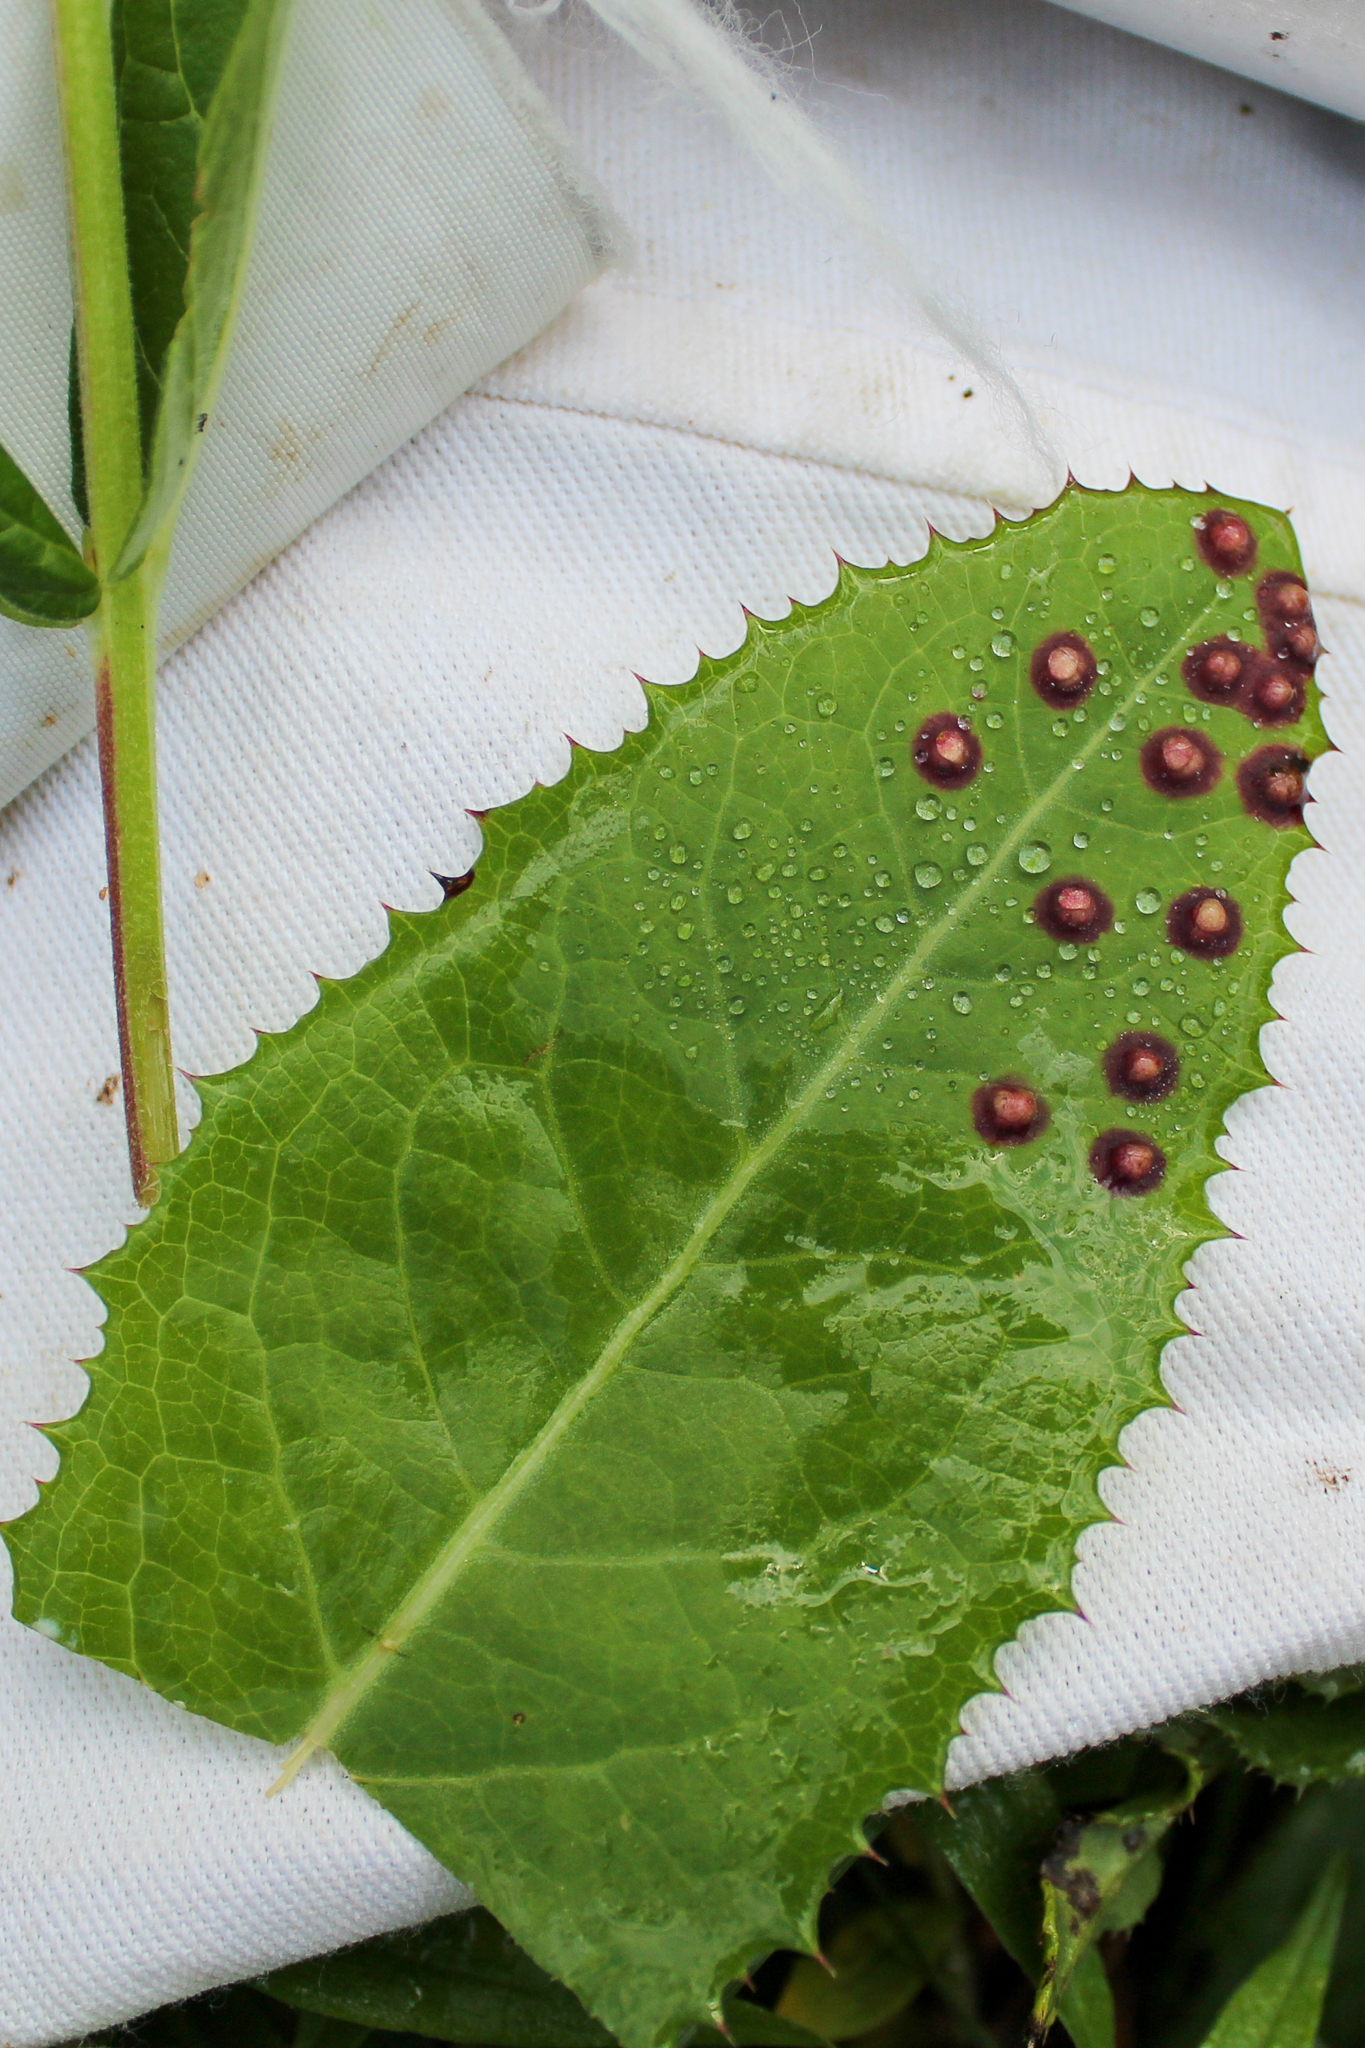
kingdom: Animalia
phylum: Arthropoda
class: Insecta
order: Diptera
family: Cecidomyiidae
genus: Cystiphora
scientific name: Cystiphora sonchi
